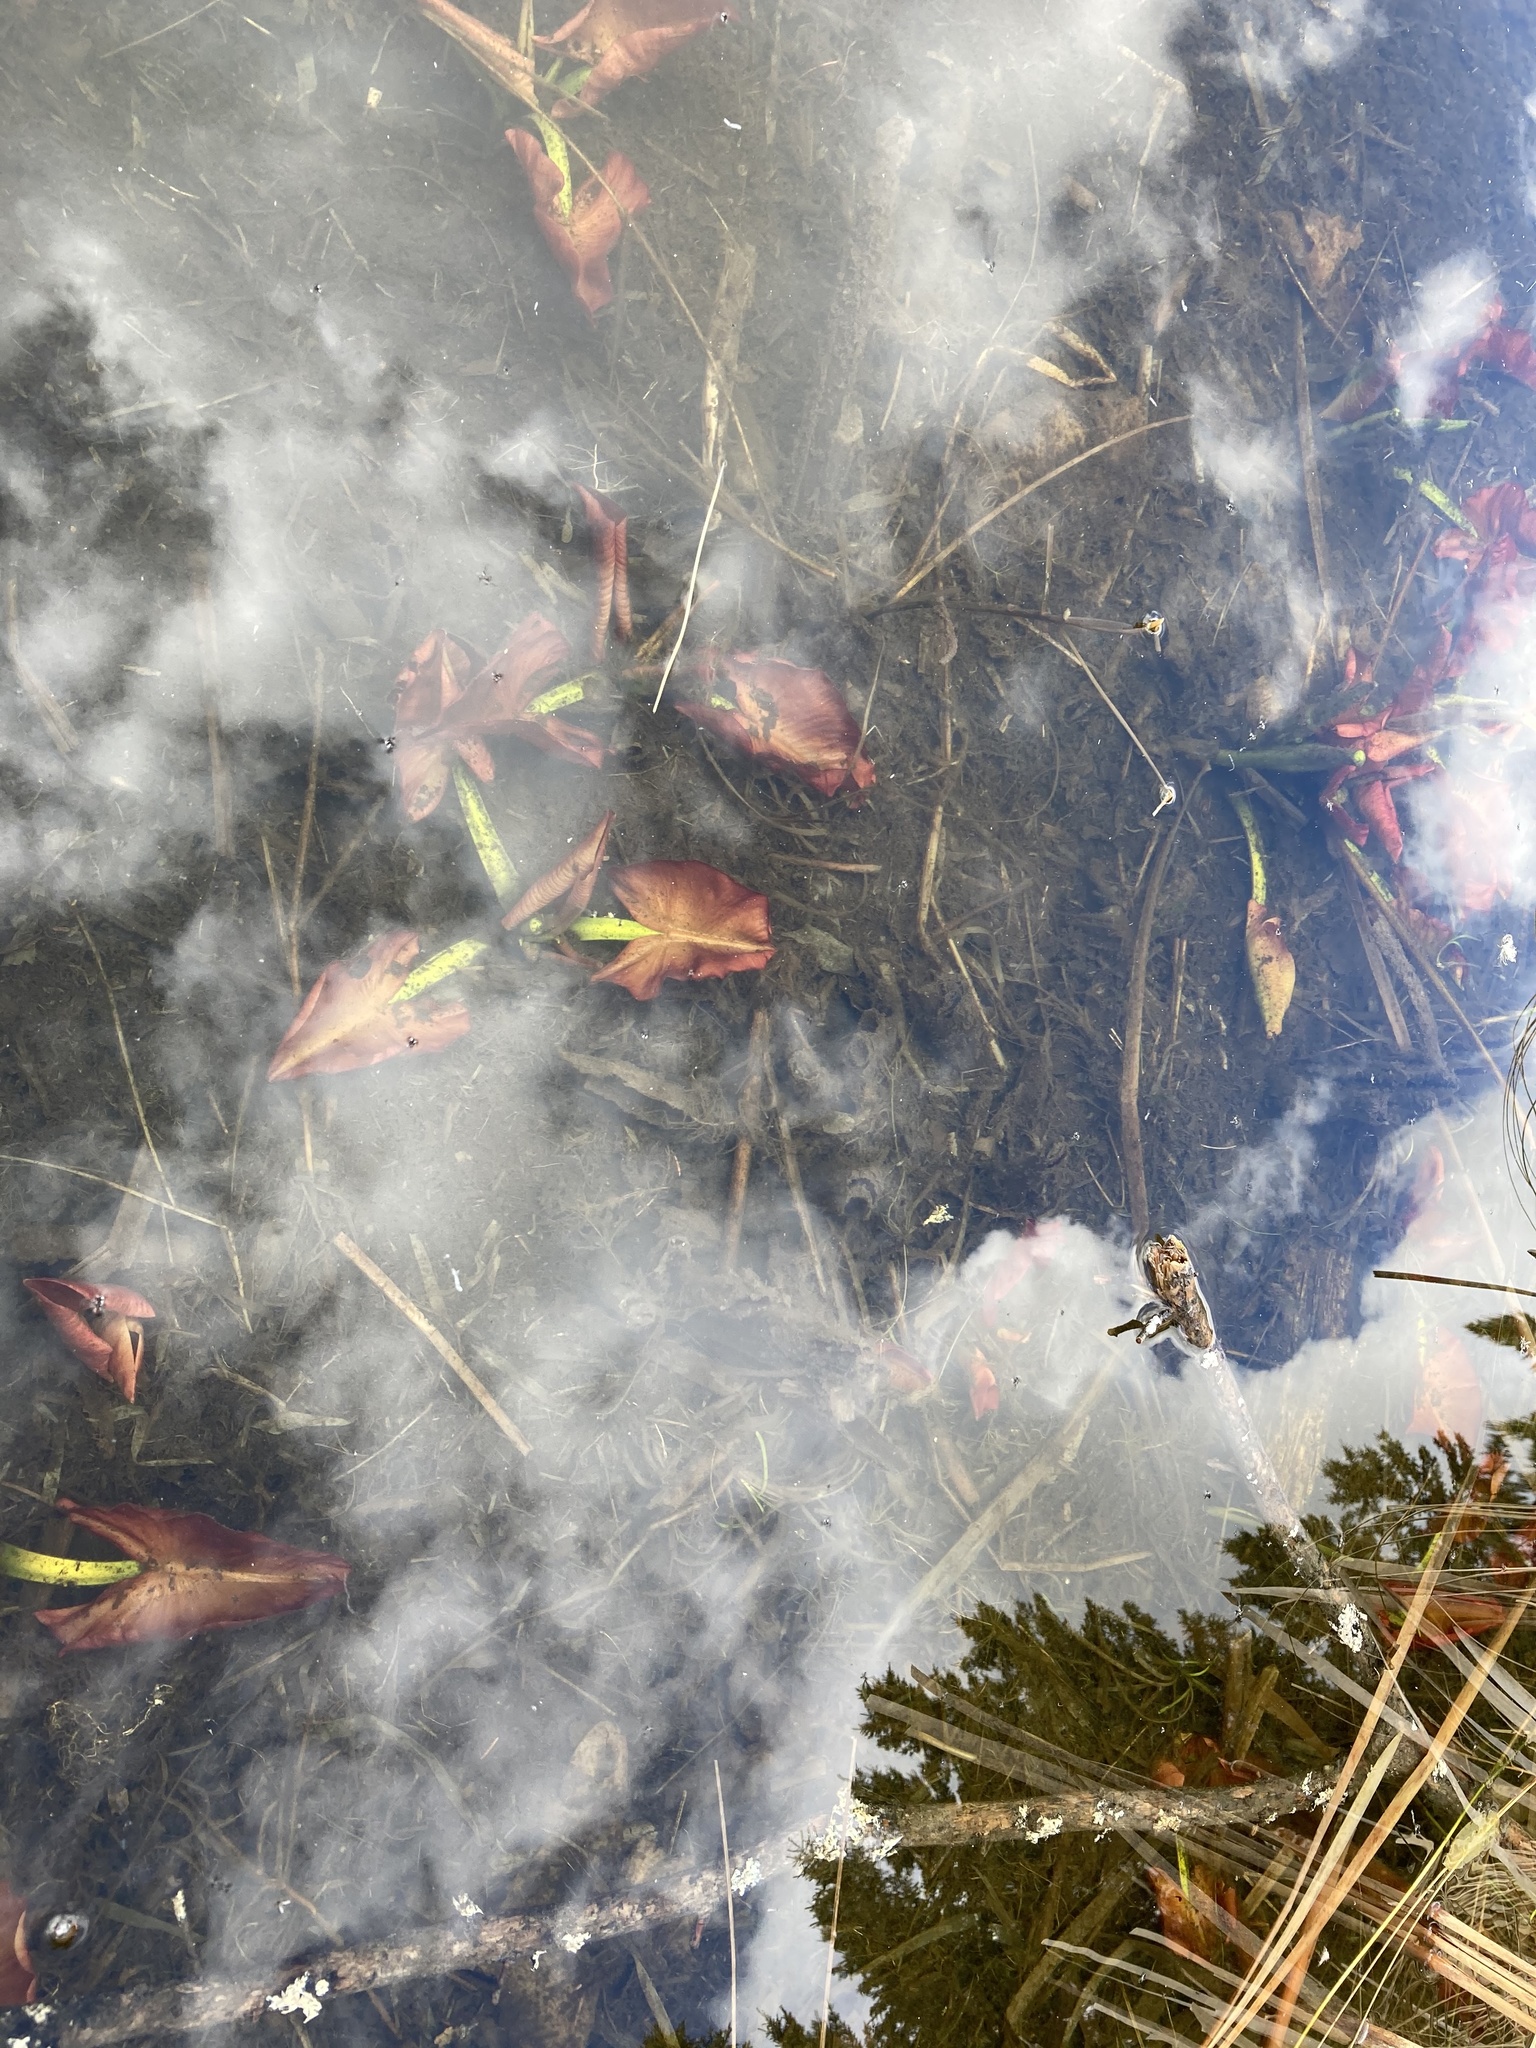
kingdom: Plantae
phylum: Tracheophyta
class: Magnoliopsida
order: Nymphaeales
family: Nymphaeaceae
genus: Nuphar
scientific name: Nuphar variegata
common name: Beaver-root
